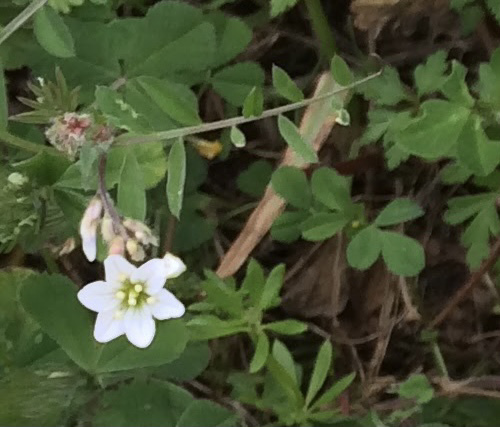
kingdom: Plantae
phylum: Tracheophyta
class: Liliopsida
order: Asparagales
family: Amaryllidaceae
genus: Nothoscordum
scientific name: Nothoscordum gracile
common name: Slender false garlic
